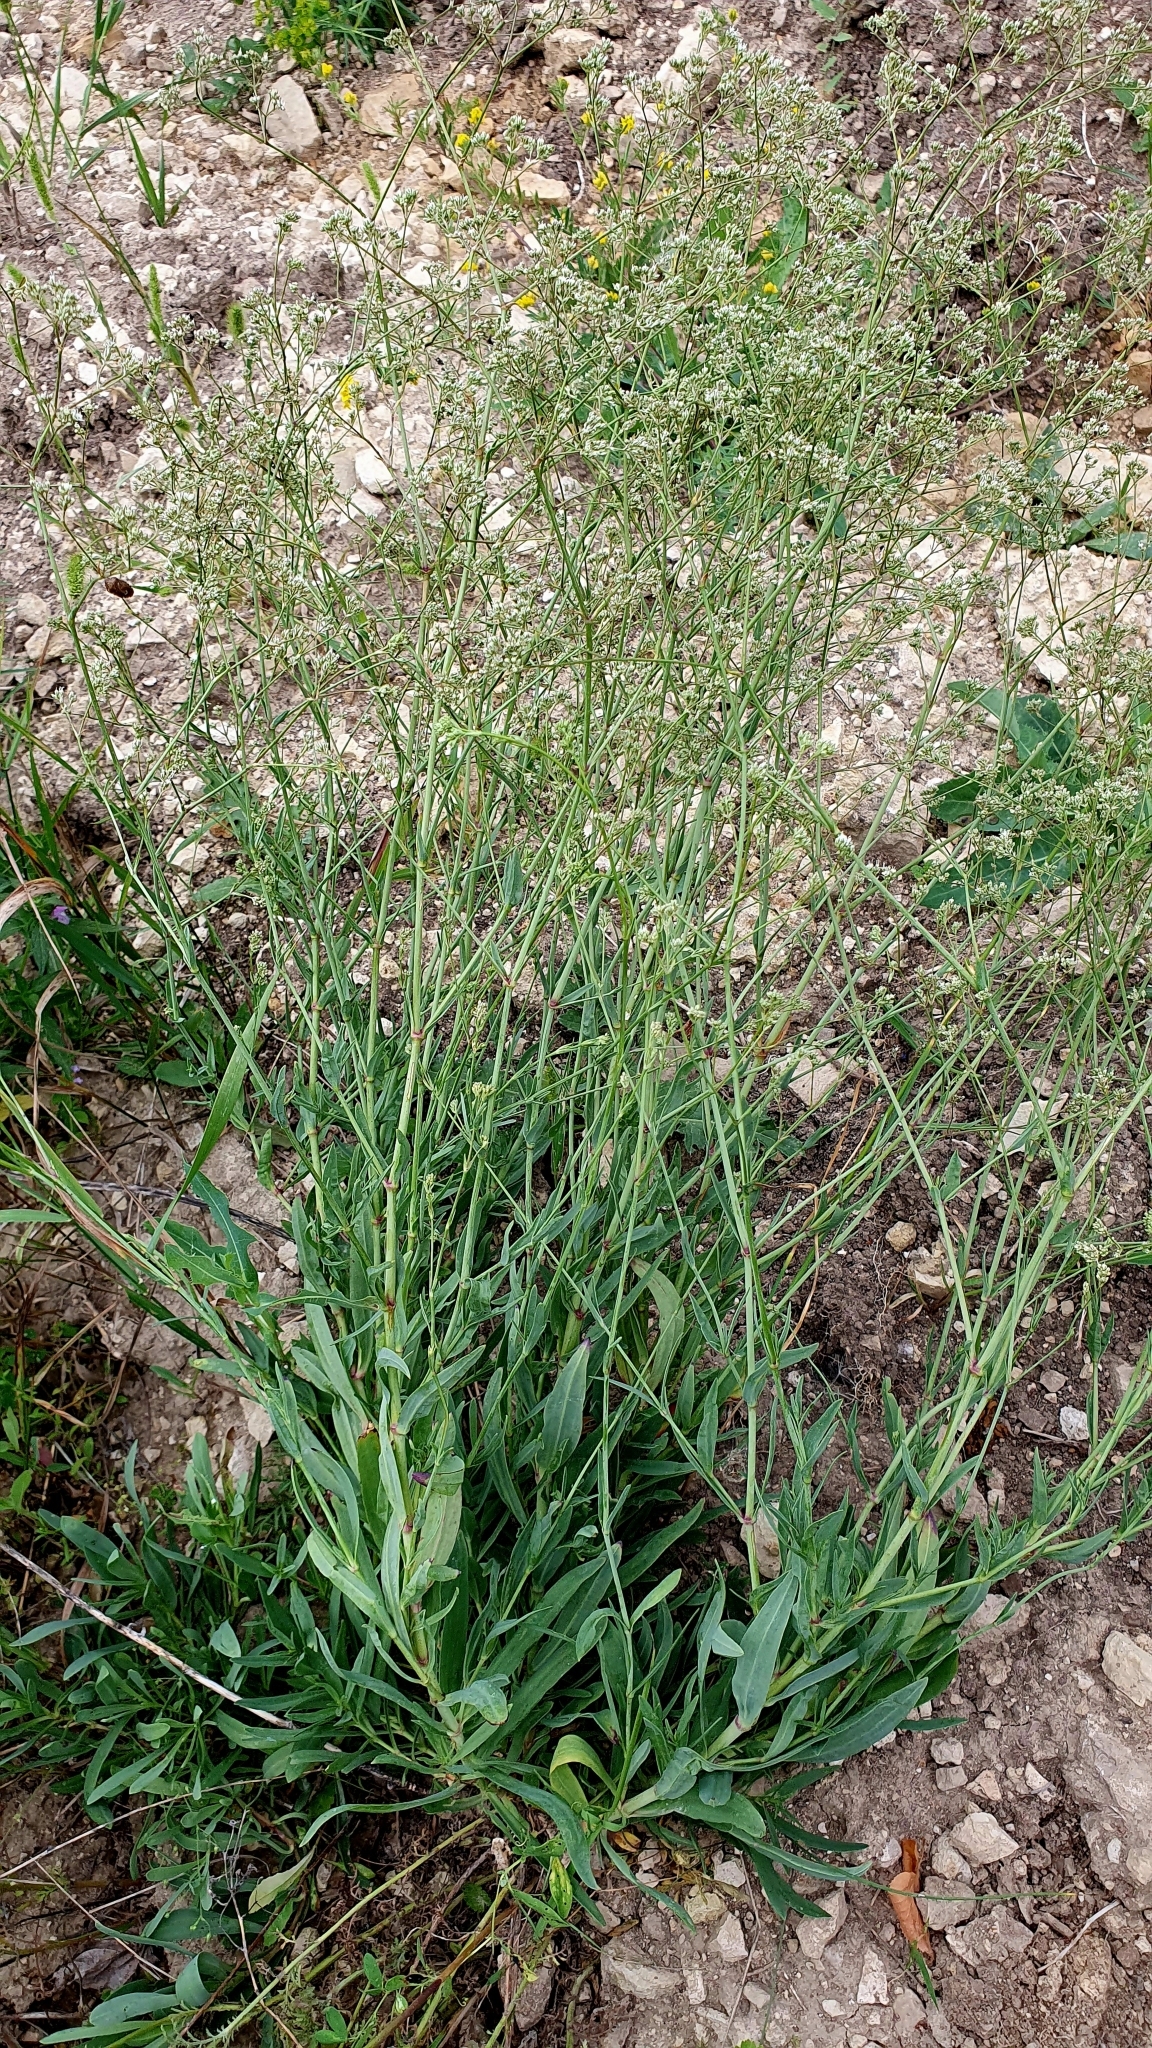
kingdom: Plantae
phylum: Tracheophyta
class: Magnoliopsida
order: Caryophyllales
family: Caryophyllaceae
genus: Gypsophila
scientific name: Gypsophila altissima
